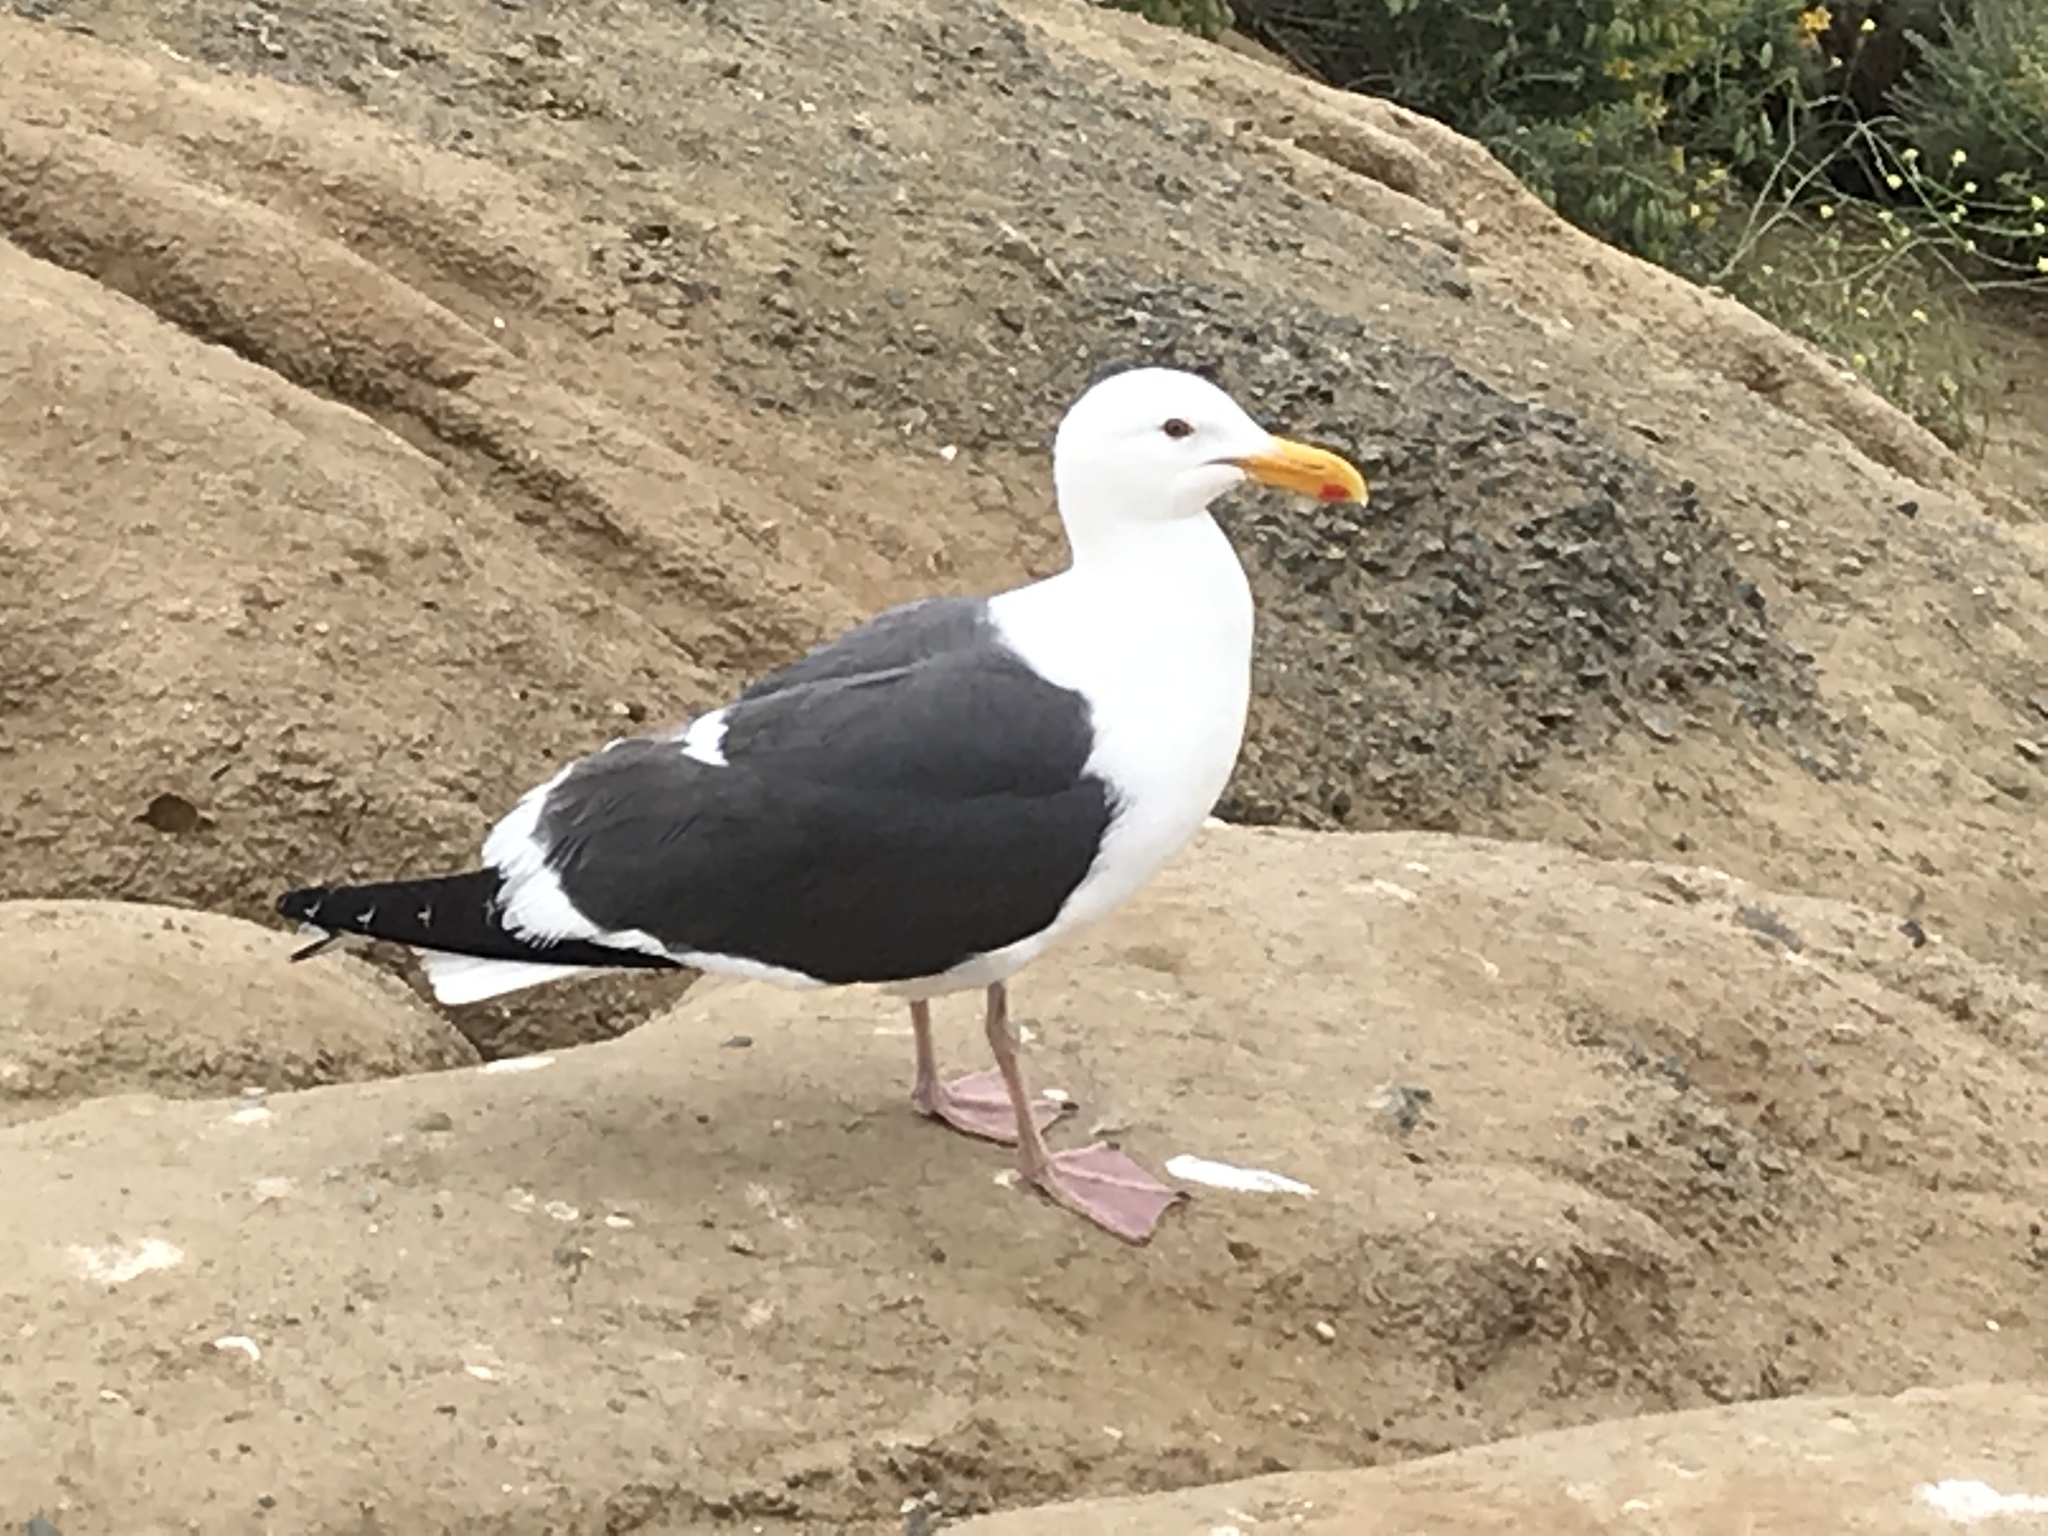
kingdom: Animalia
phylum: Chordata
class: Aves
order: Charadriiformes
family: Laridae
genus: Larus
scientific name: Larus occidentalis
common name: Western gull
